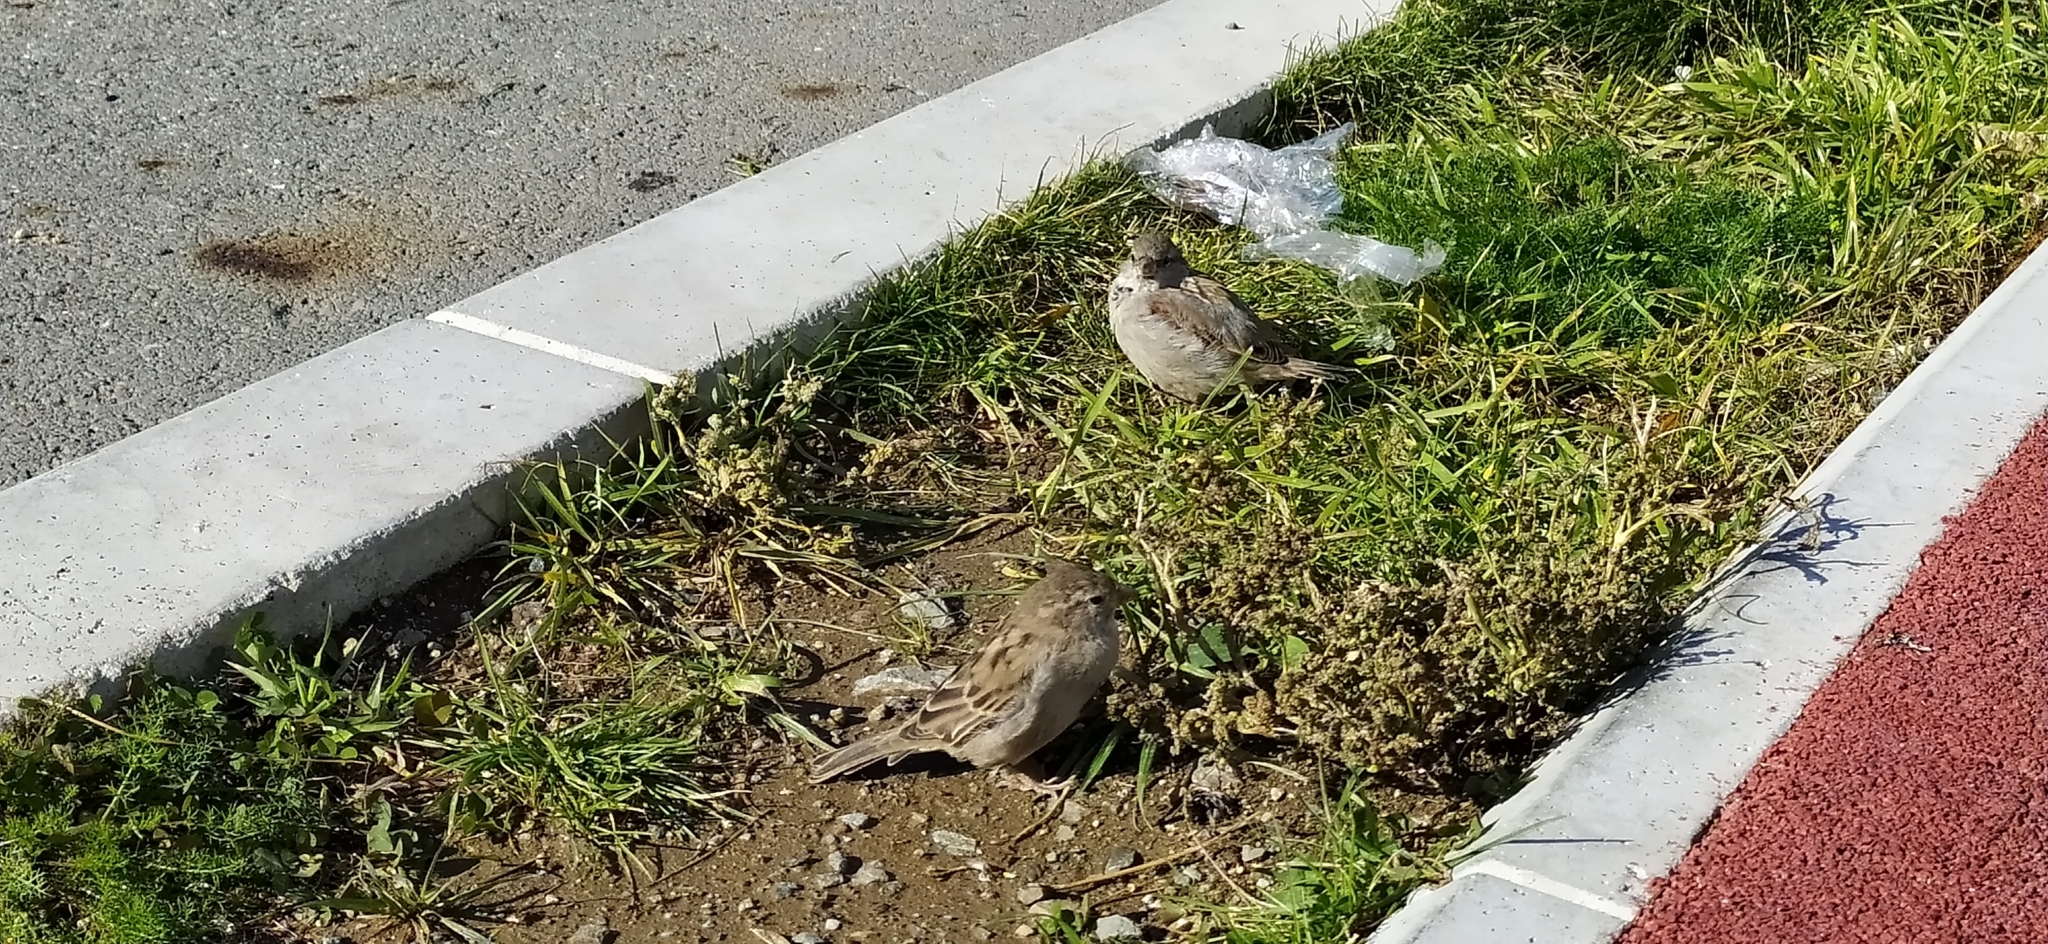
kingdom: Animalia
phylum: Chordata
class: Aves
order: Passeriformes
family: Passeridae
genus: Passer
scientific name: Passer domesticus
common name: House sparrow
